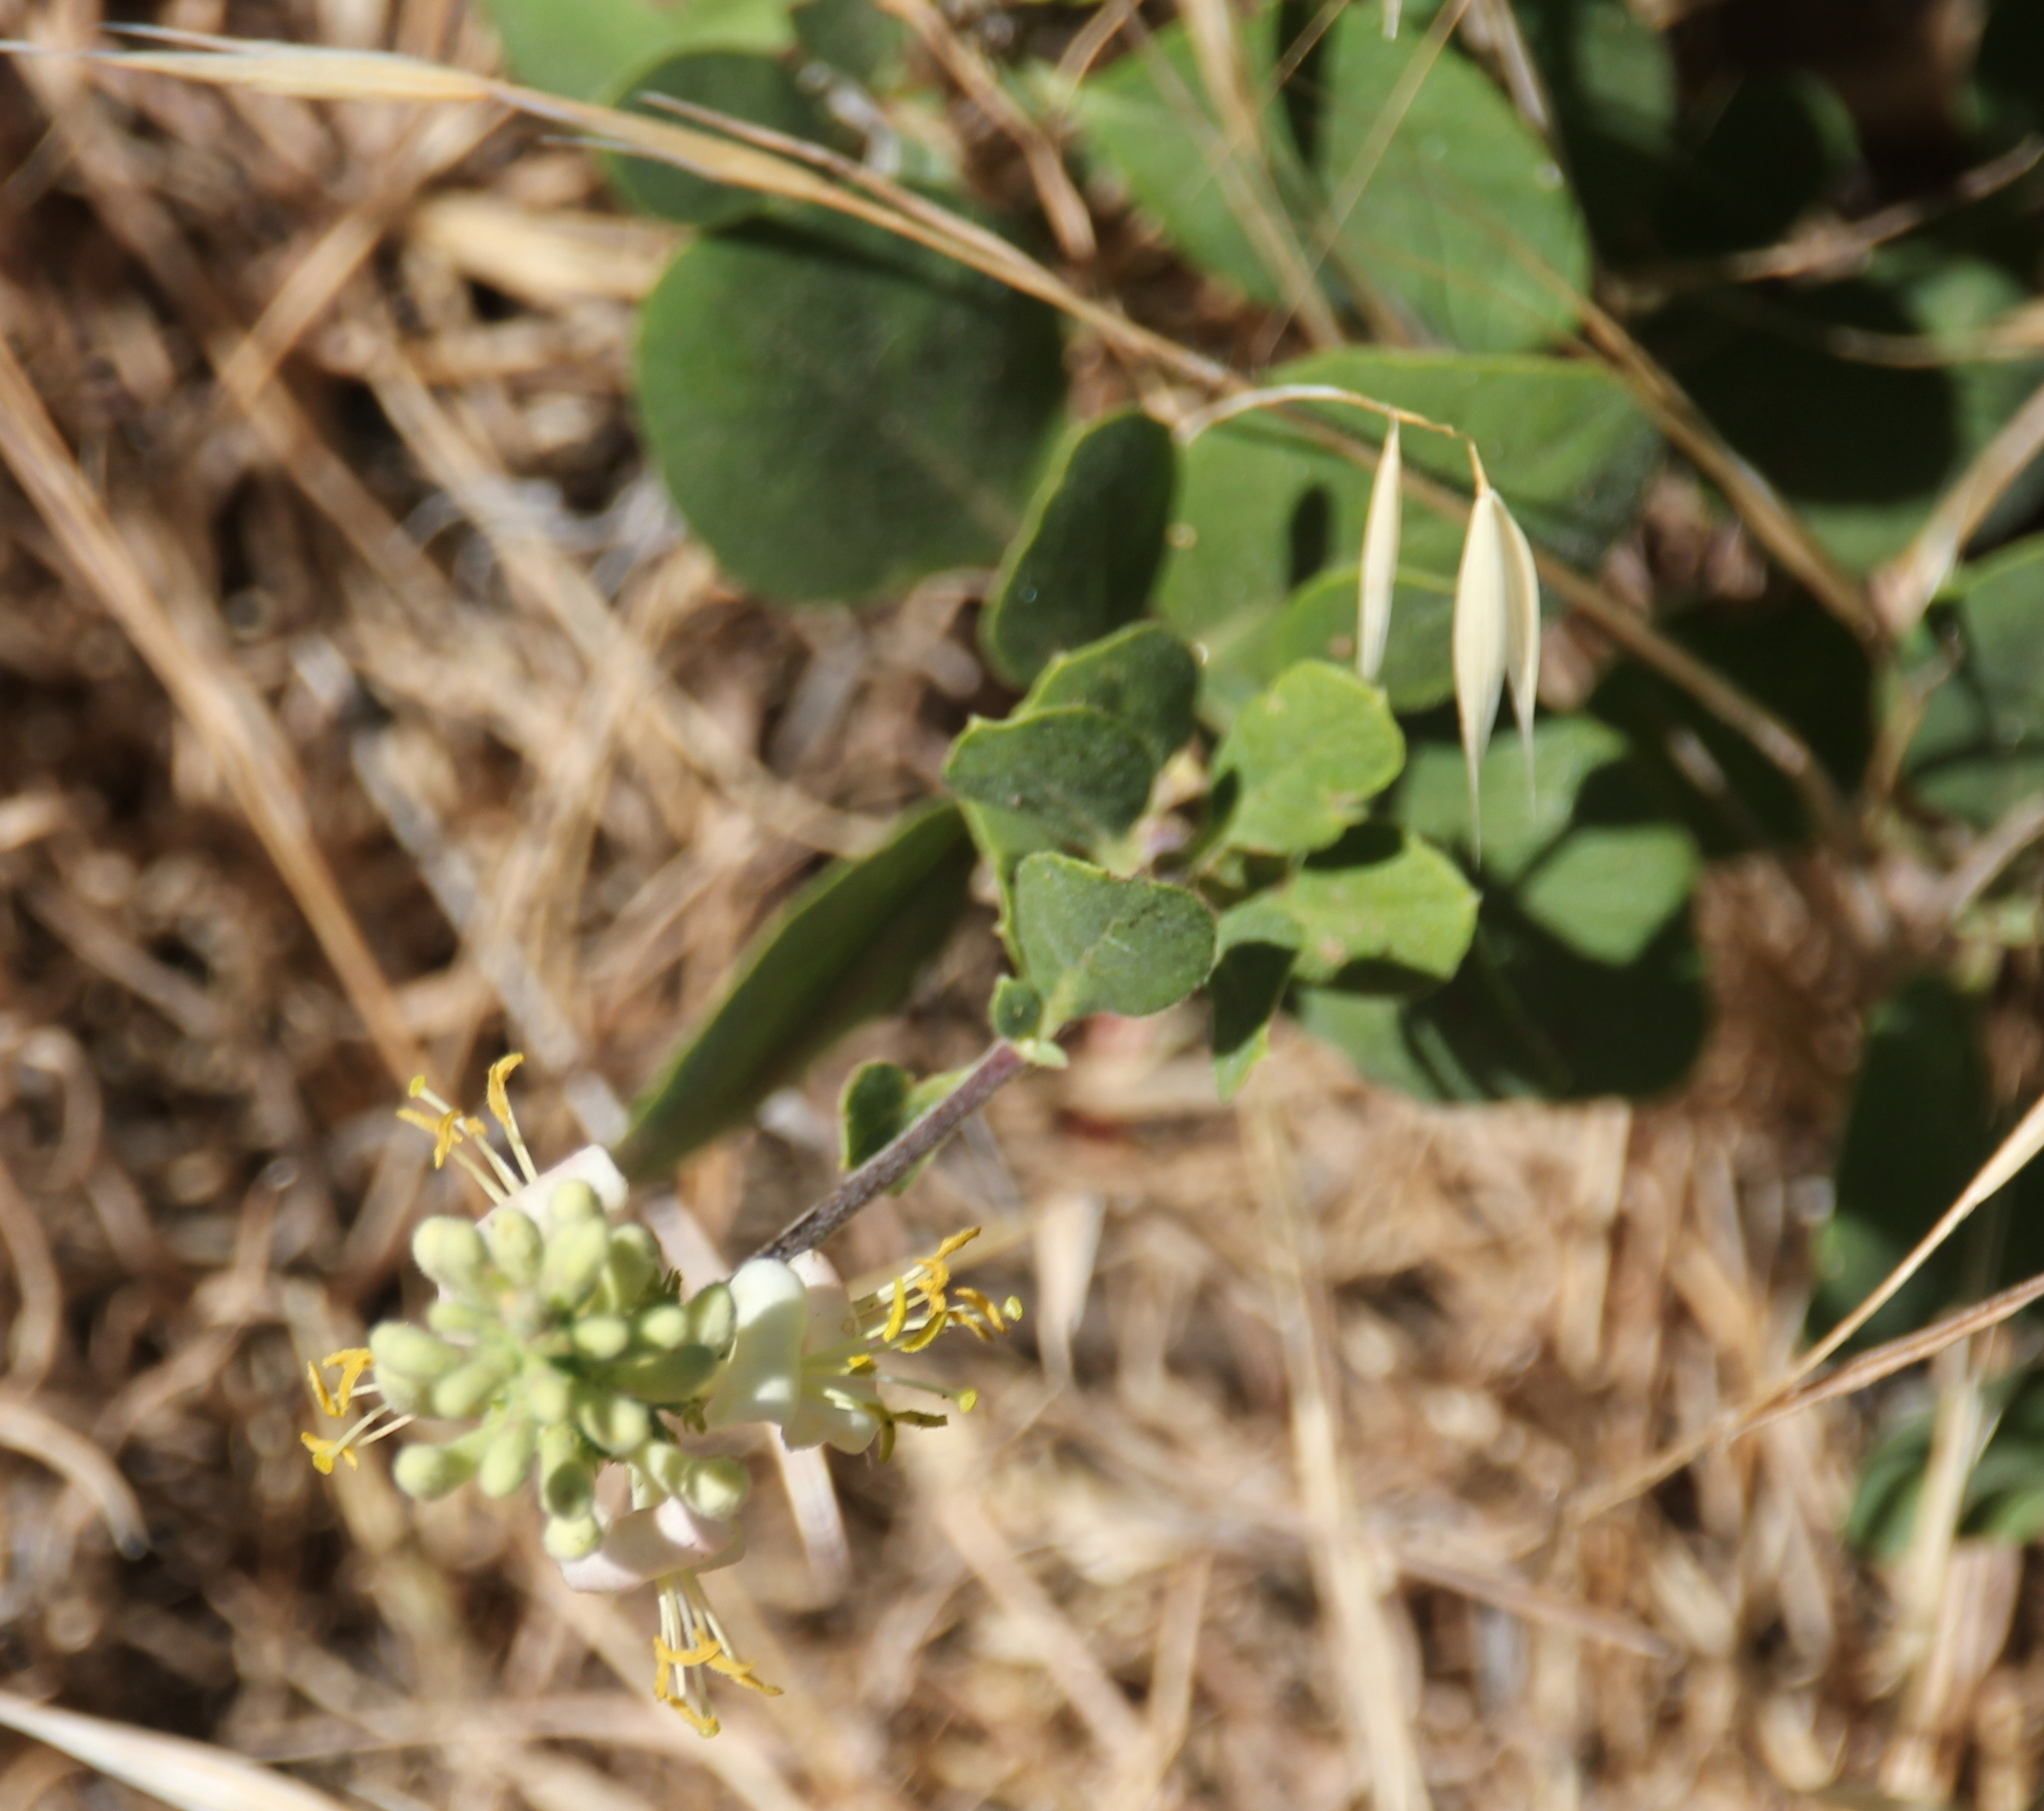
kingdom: Plantae
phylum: Tracheophyta
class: Magnoliopsida
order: Dipsacales
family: Caprifoliaceae
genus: Lonicera
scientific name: Lonicera subspicata
